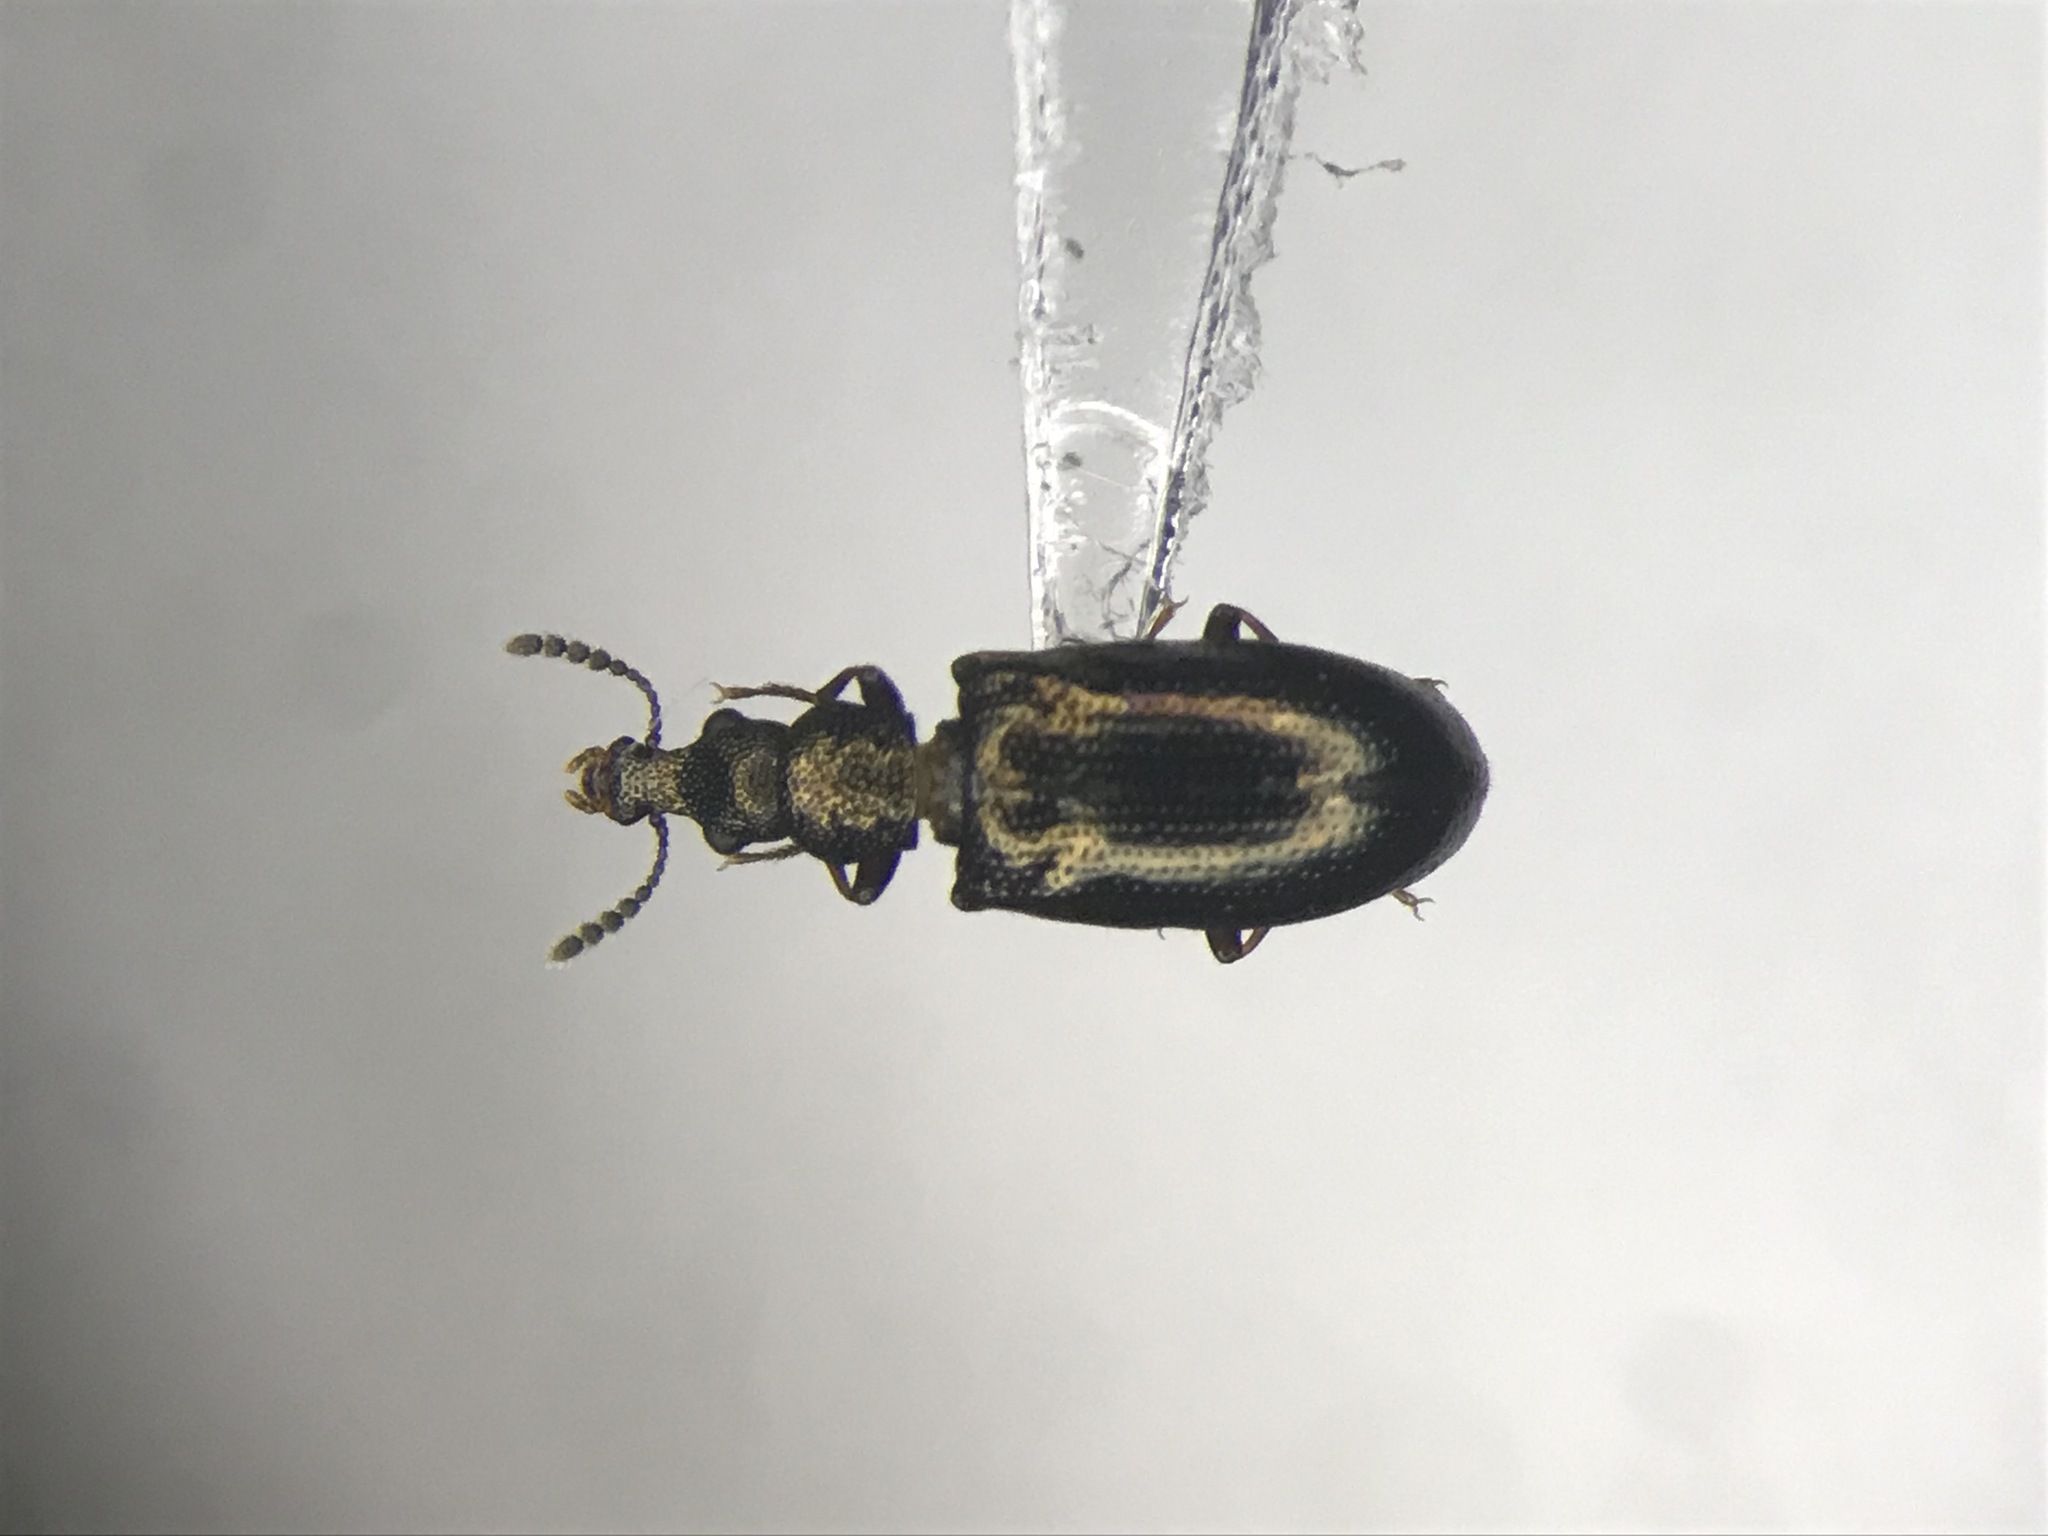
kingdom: Animalia
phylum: Arthropoda
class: Insecta
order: Coleoptera
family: Salpingidae
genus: Salpingus
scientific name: Salpingus
